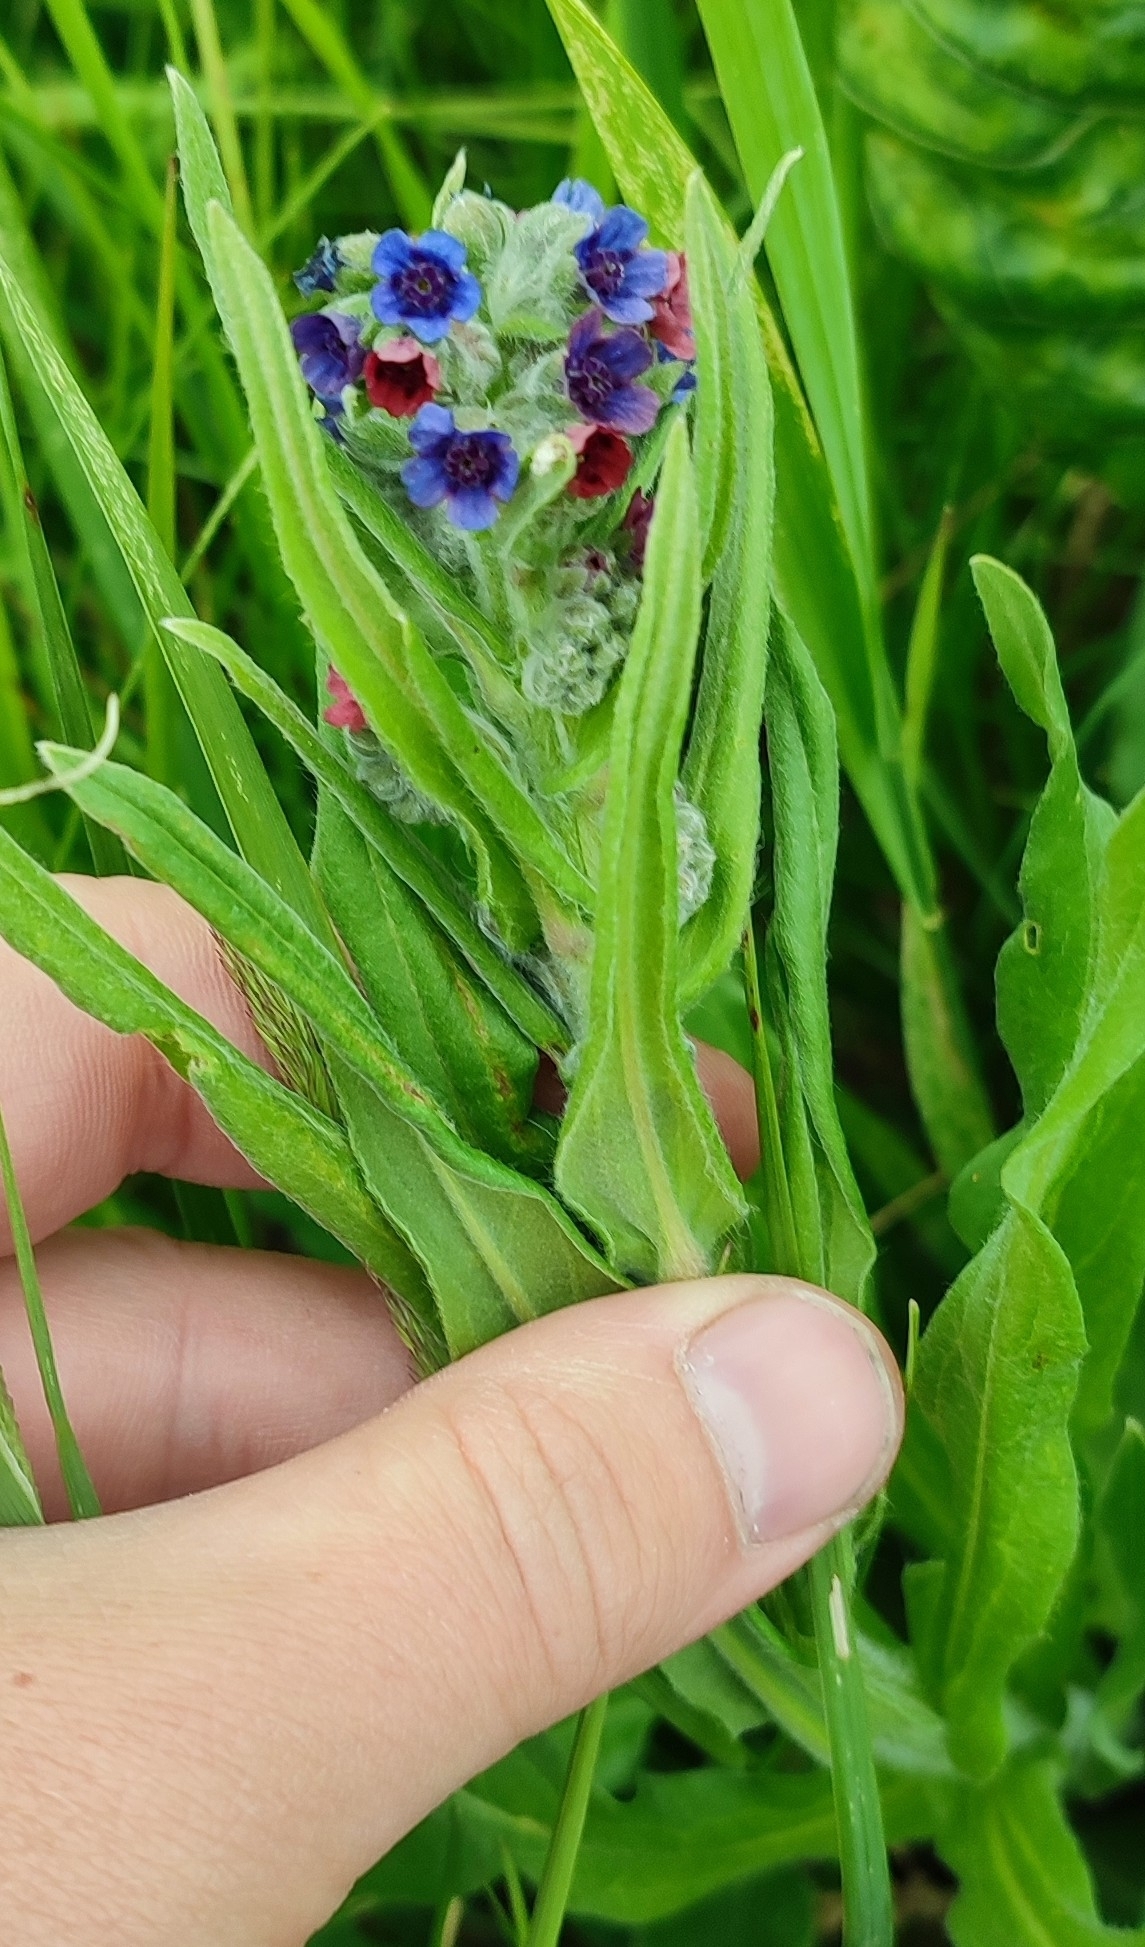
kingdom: Plantae
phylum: Tracheophyta
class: Magnoliopsida
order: Boraginales
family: Boraginaceae
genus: Cynoglossum
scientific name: Cynoglossum officinale
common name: Hound's-tongue
